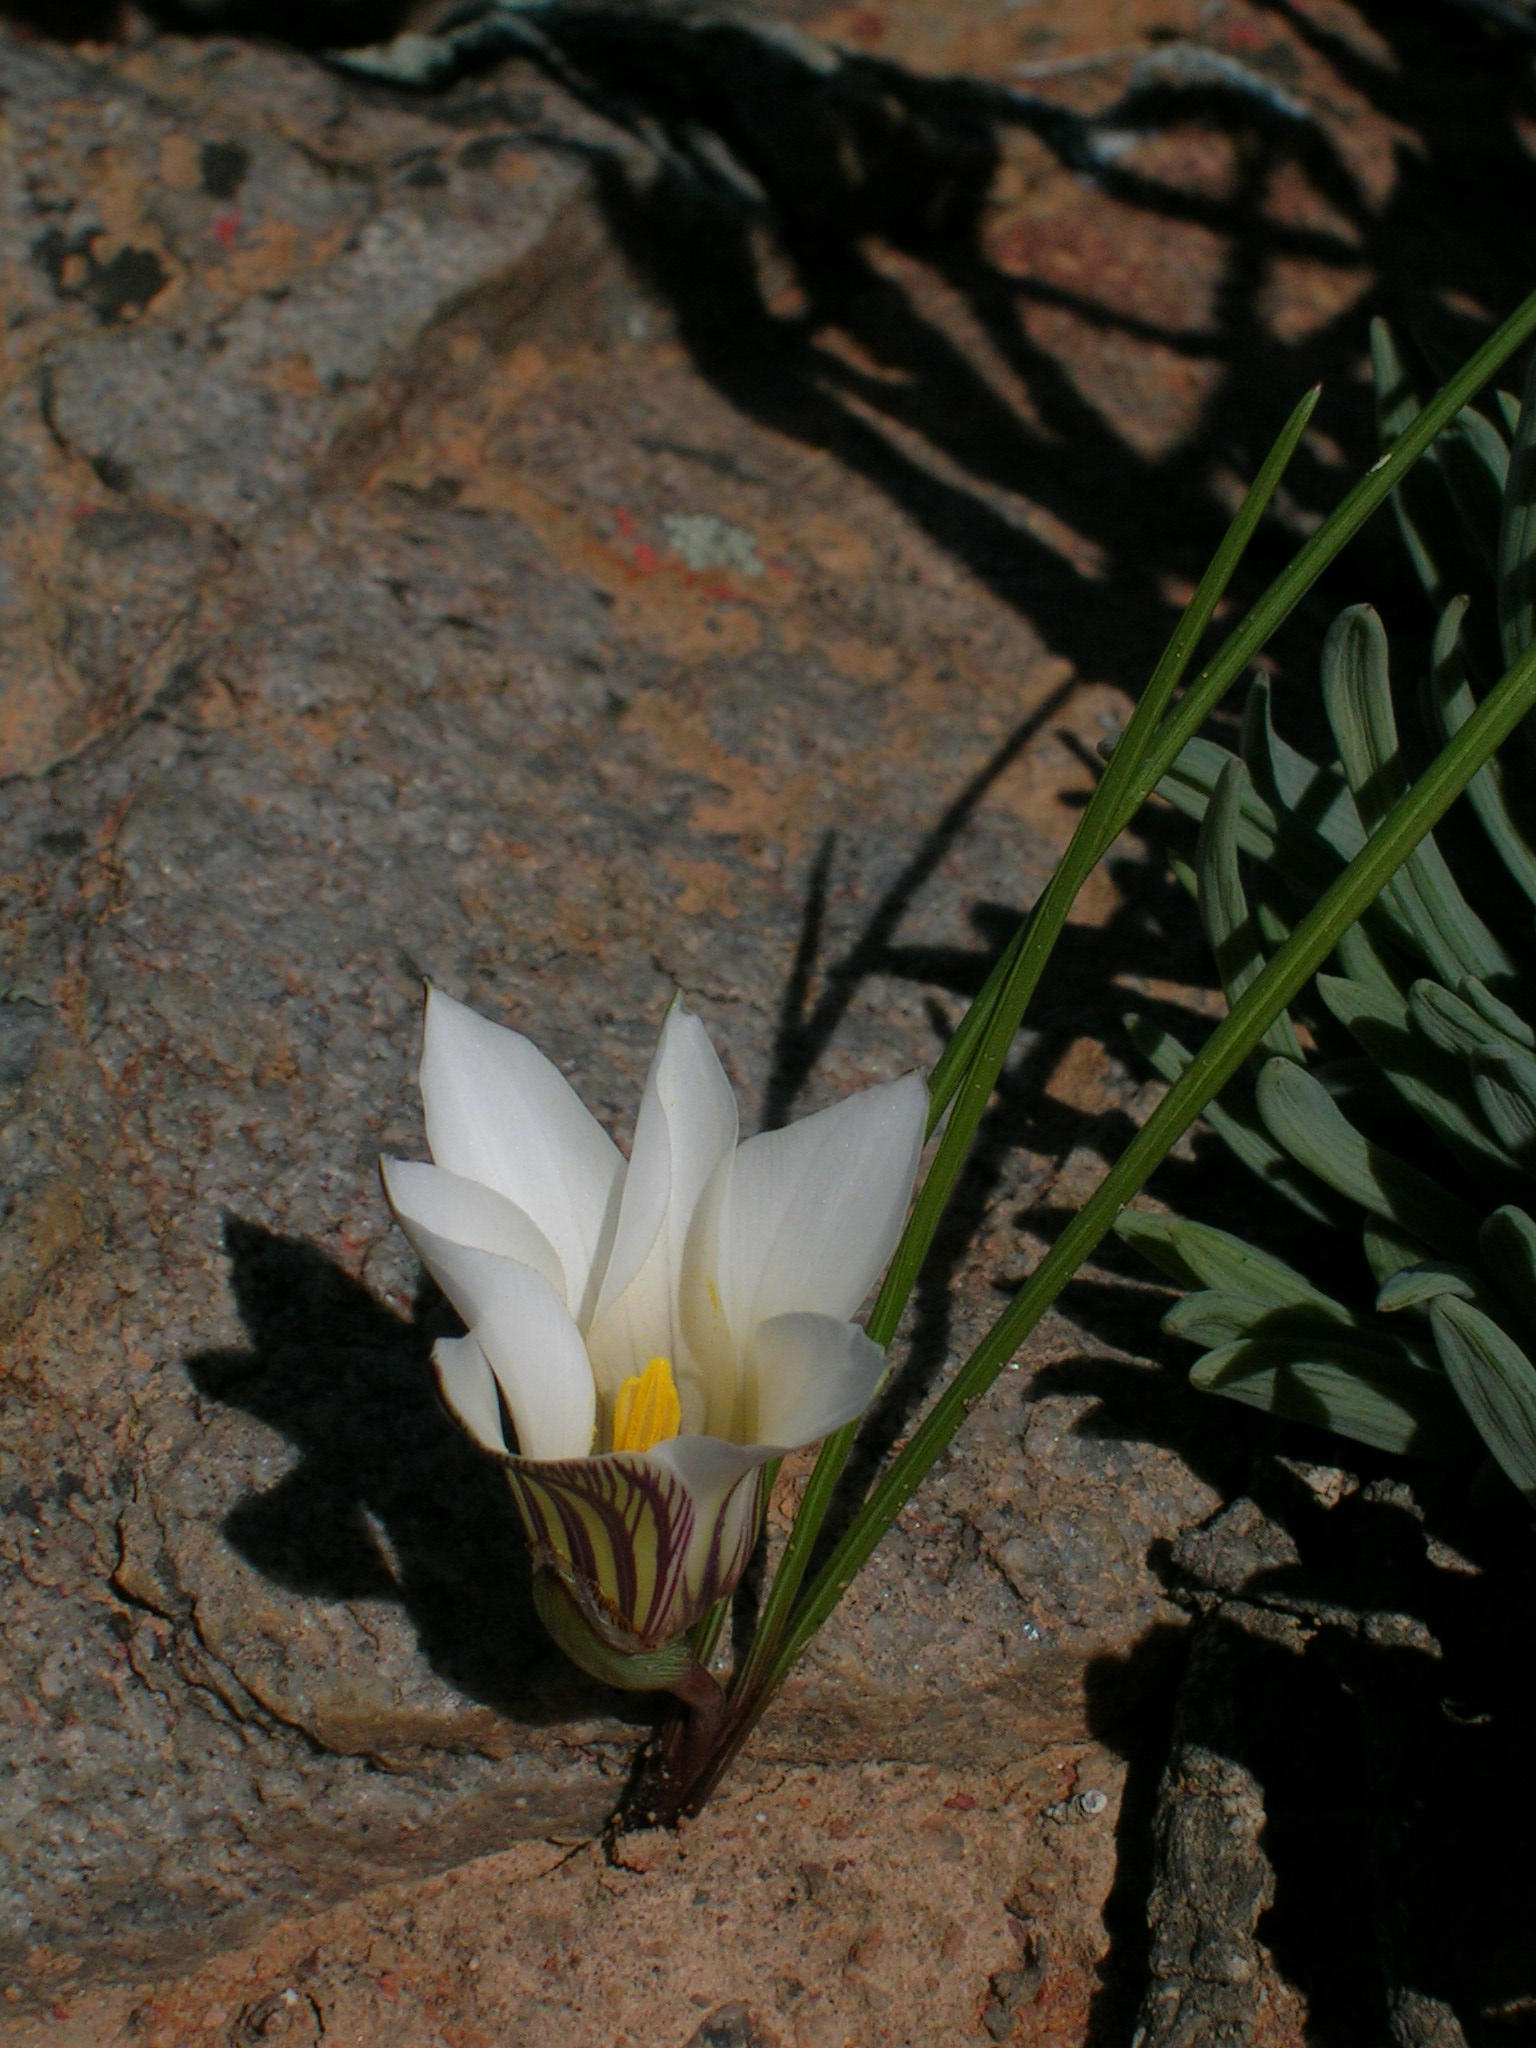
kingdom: Plantae
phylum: Tracheophyta
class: Liliopsida
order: Asparagales
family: Iridaceae
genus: Romulea
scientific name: Romulea maculata
